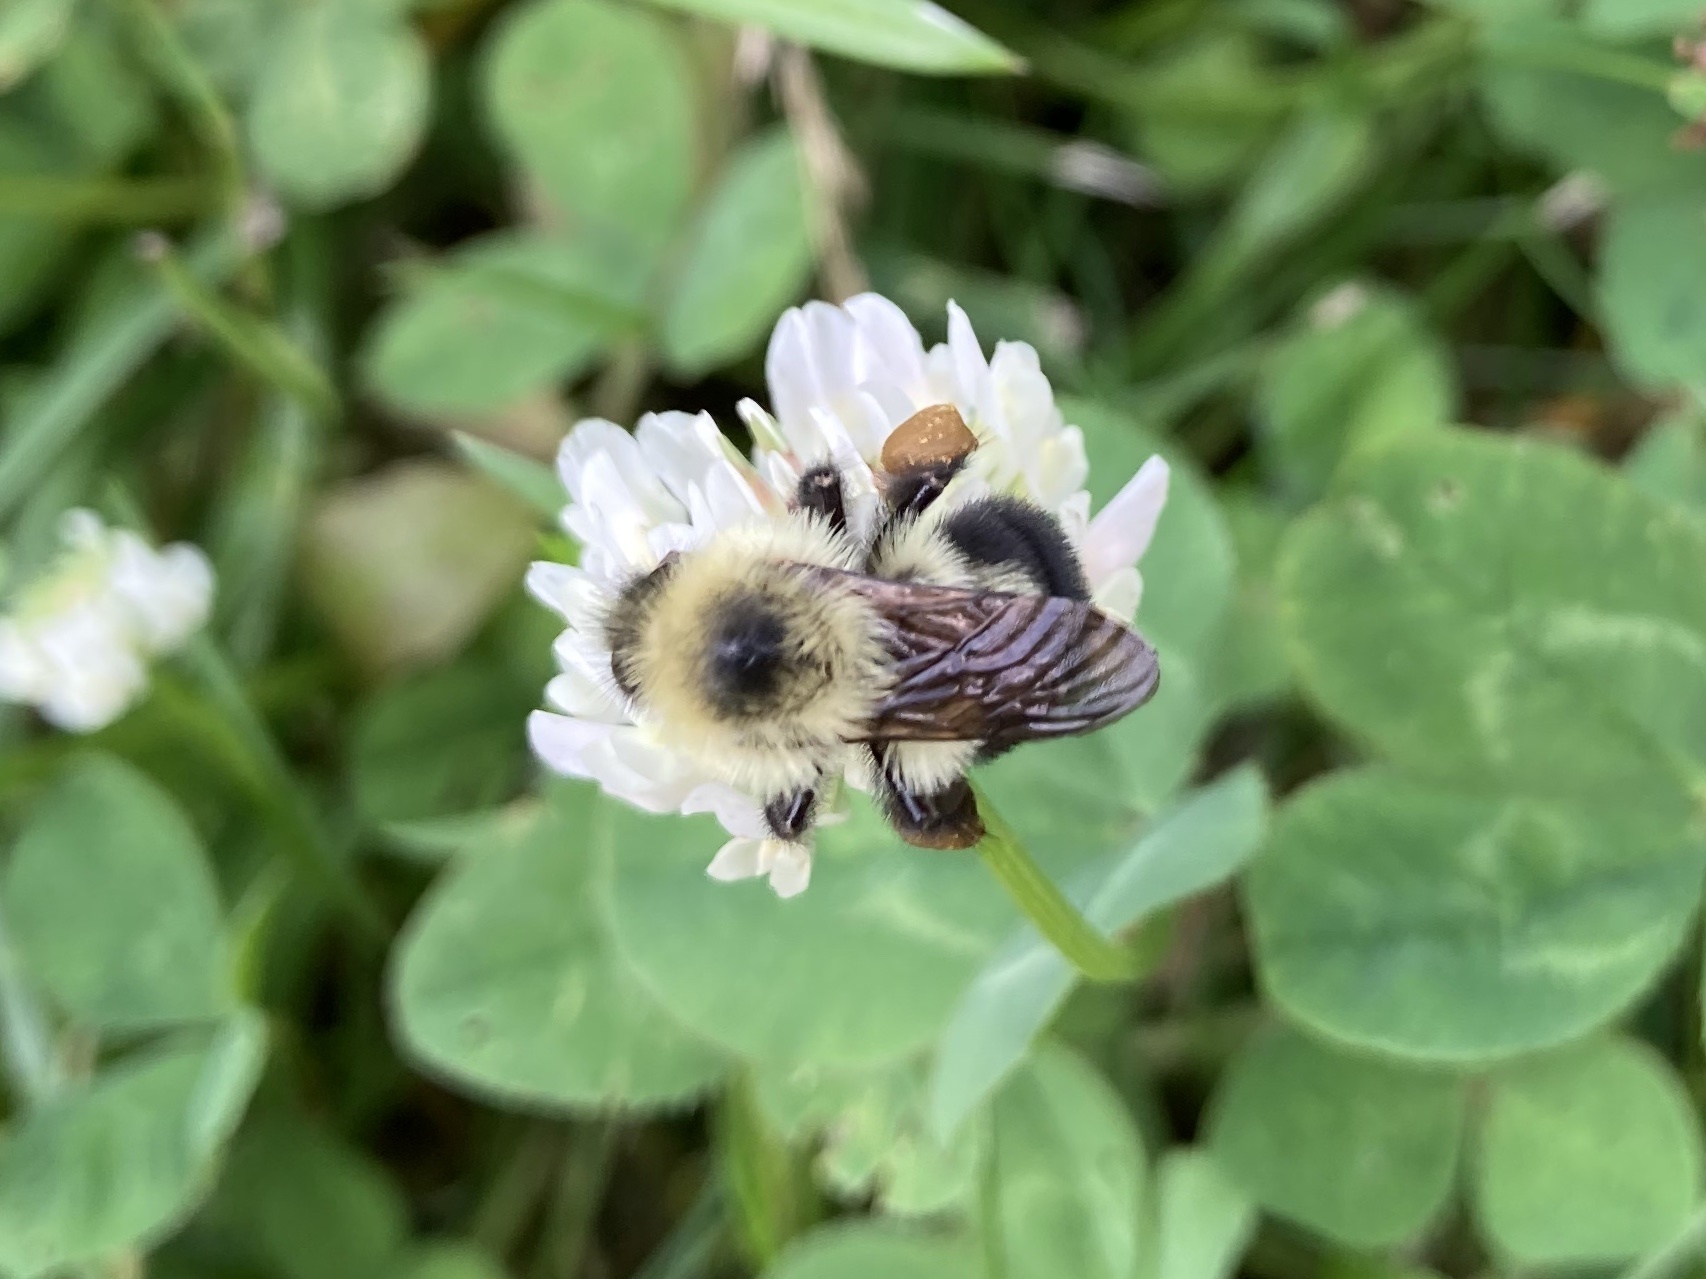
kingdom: Animalia
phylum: Arthropoda
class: Insecta
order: Hymenoptera
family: Apidae
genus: Bombus
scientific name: Bombus bimaculatus
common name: Two-spotted bumble bee
